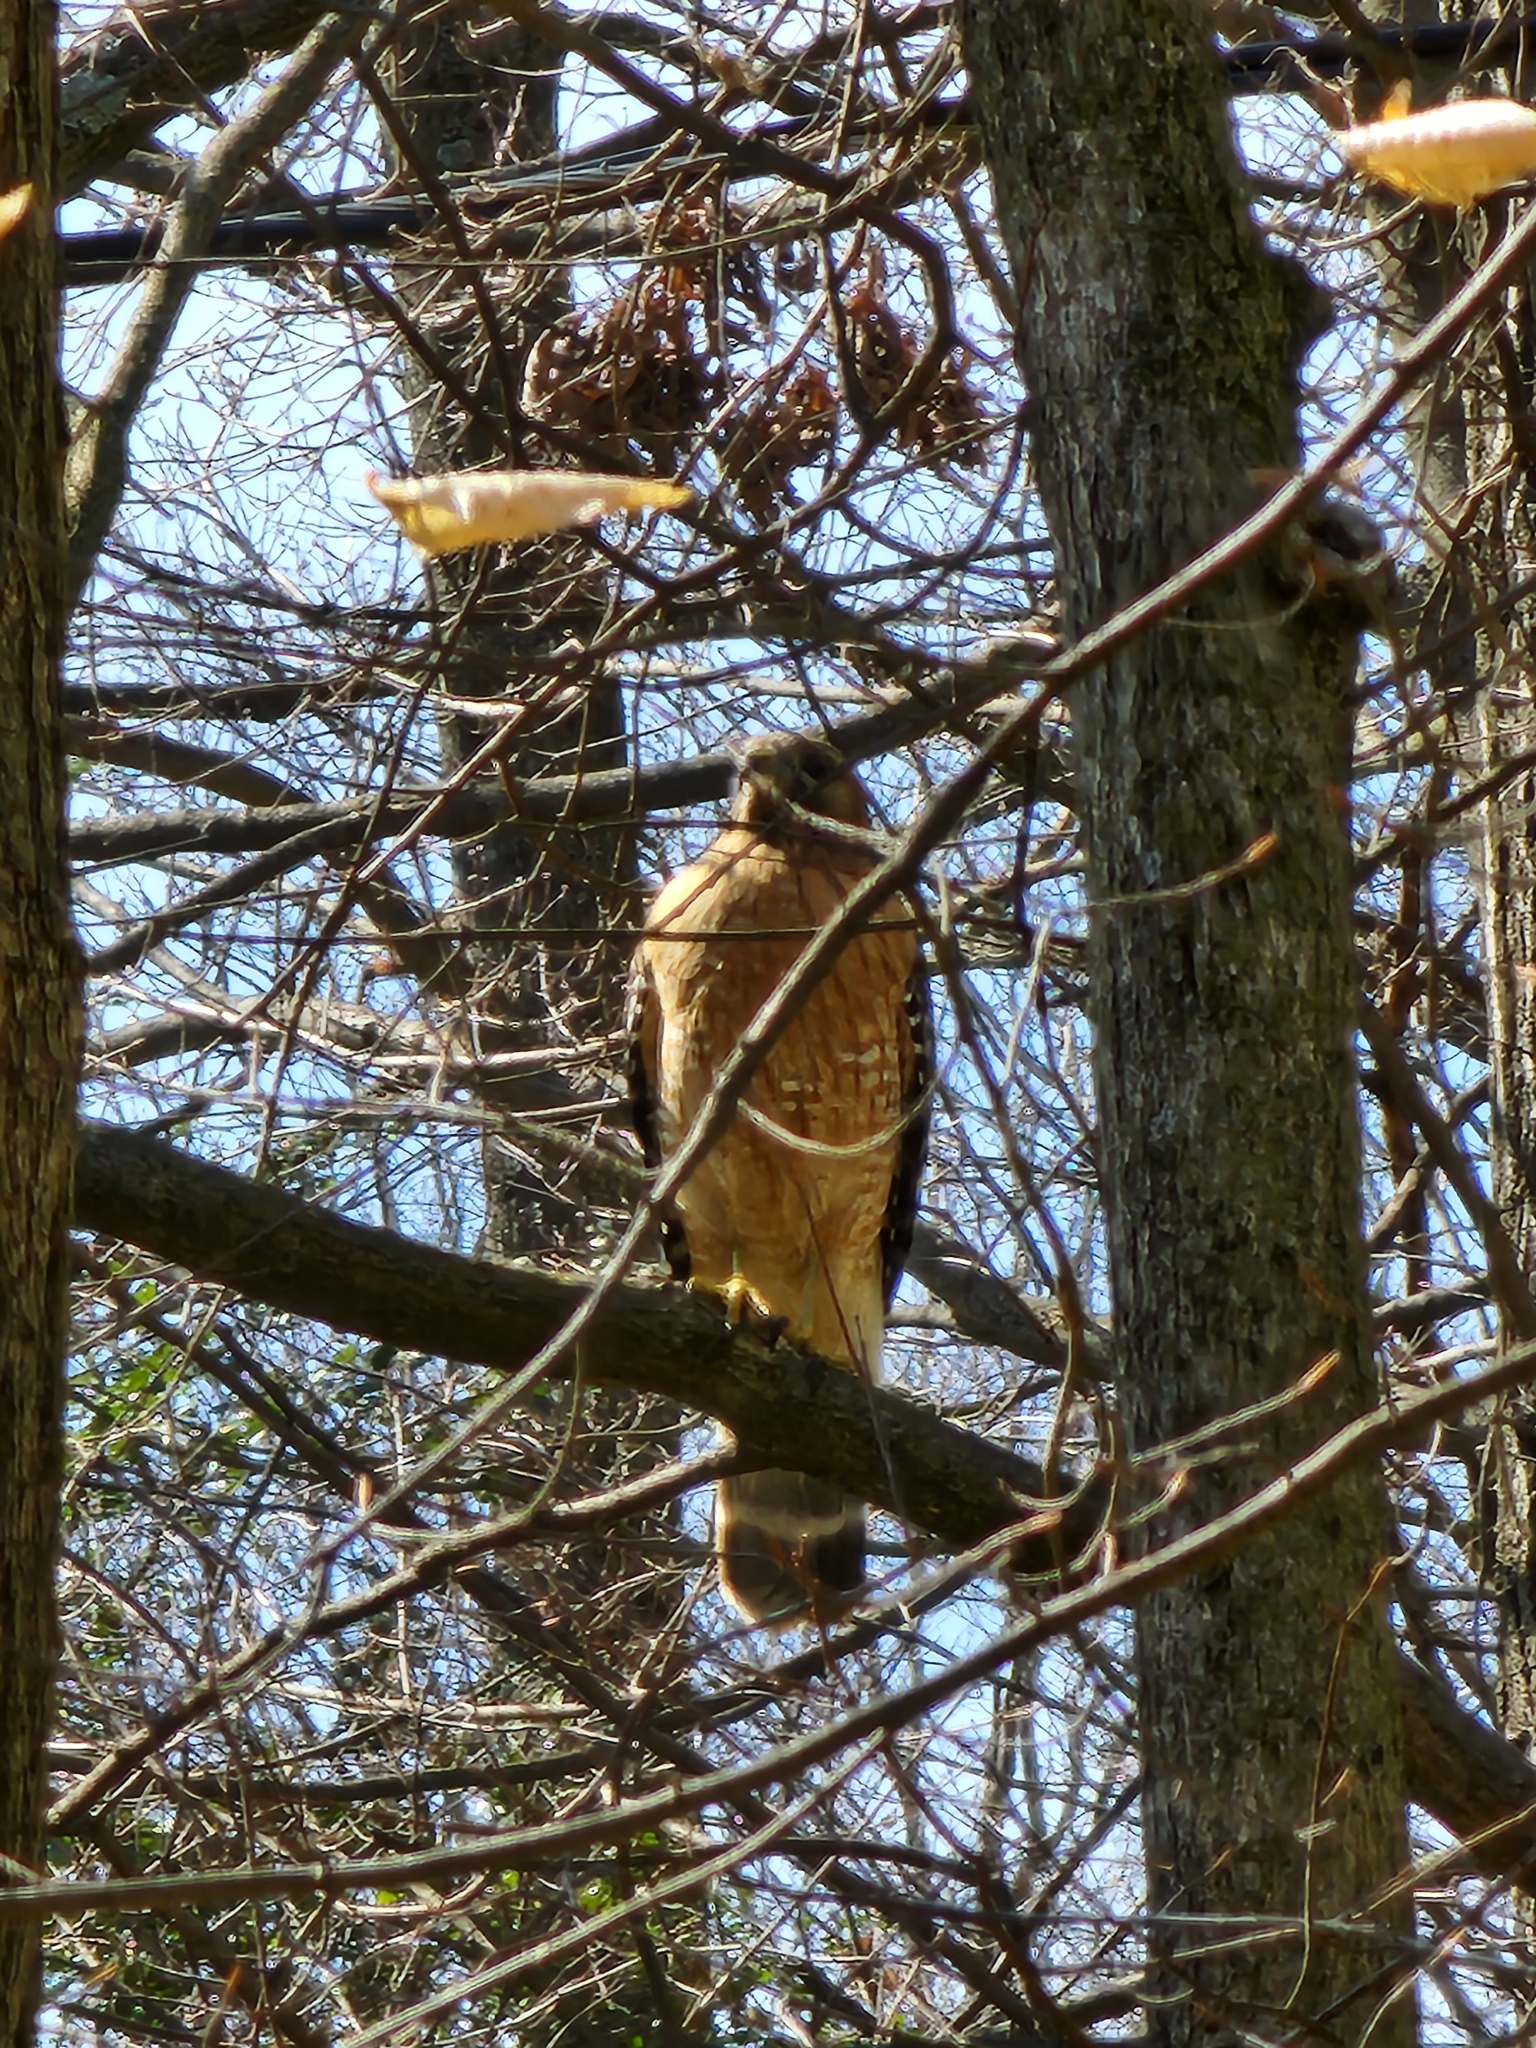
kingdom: Animalia
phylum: Chordata
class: Aves
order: Accipitriformes
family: Accipitridae
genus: Buteo
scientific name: Buteo lineatus
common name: Red-shouldered hawk
